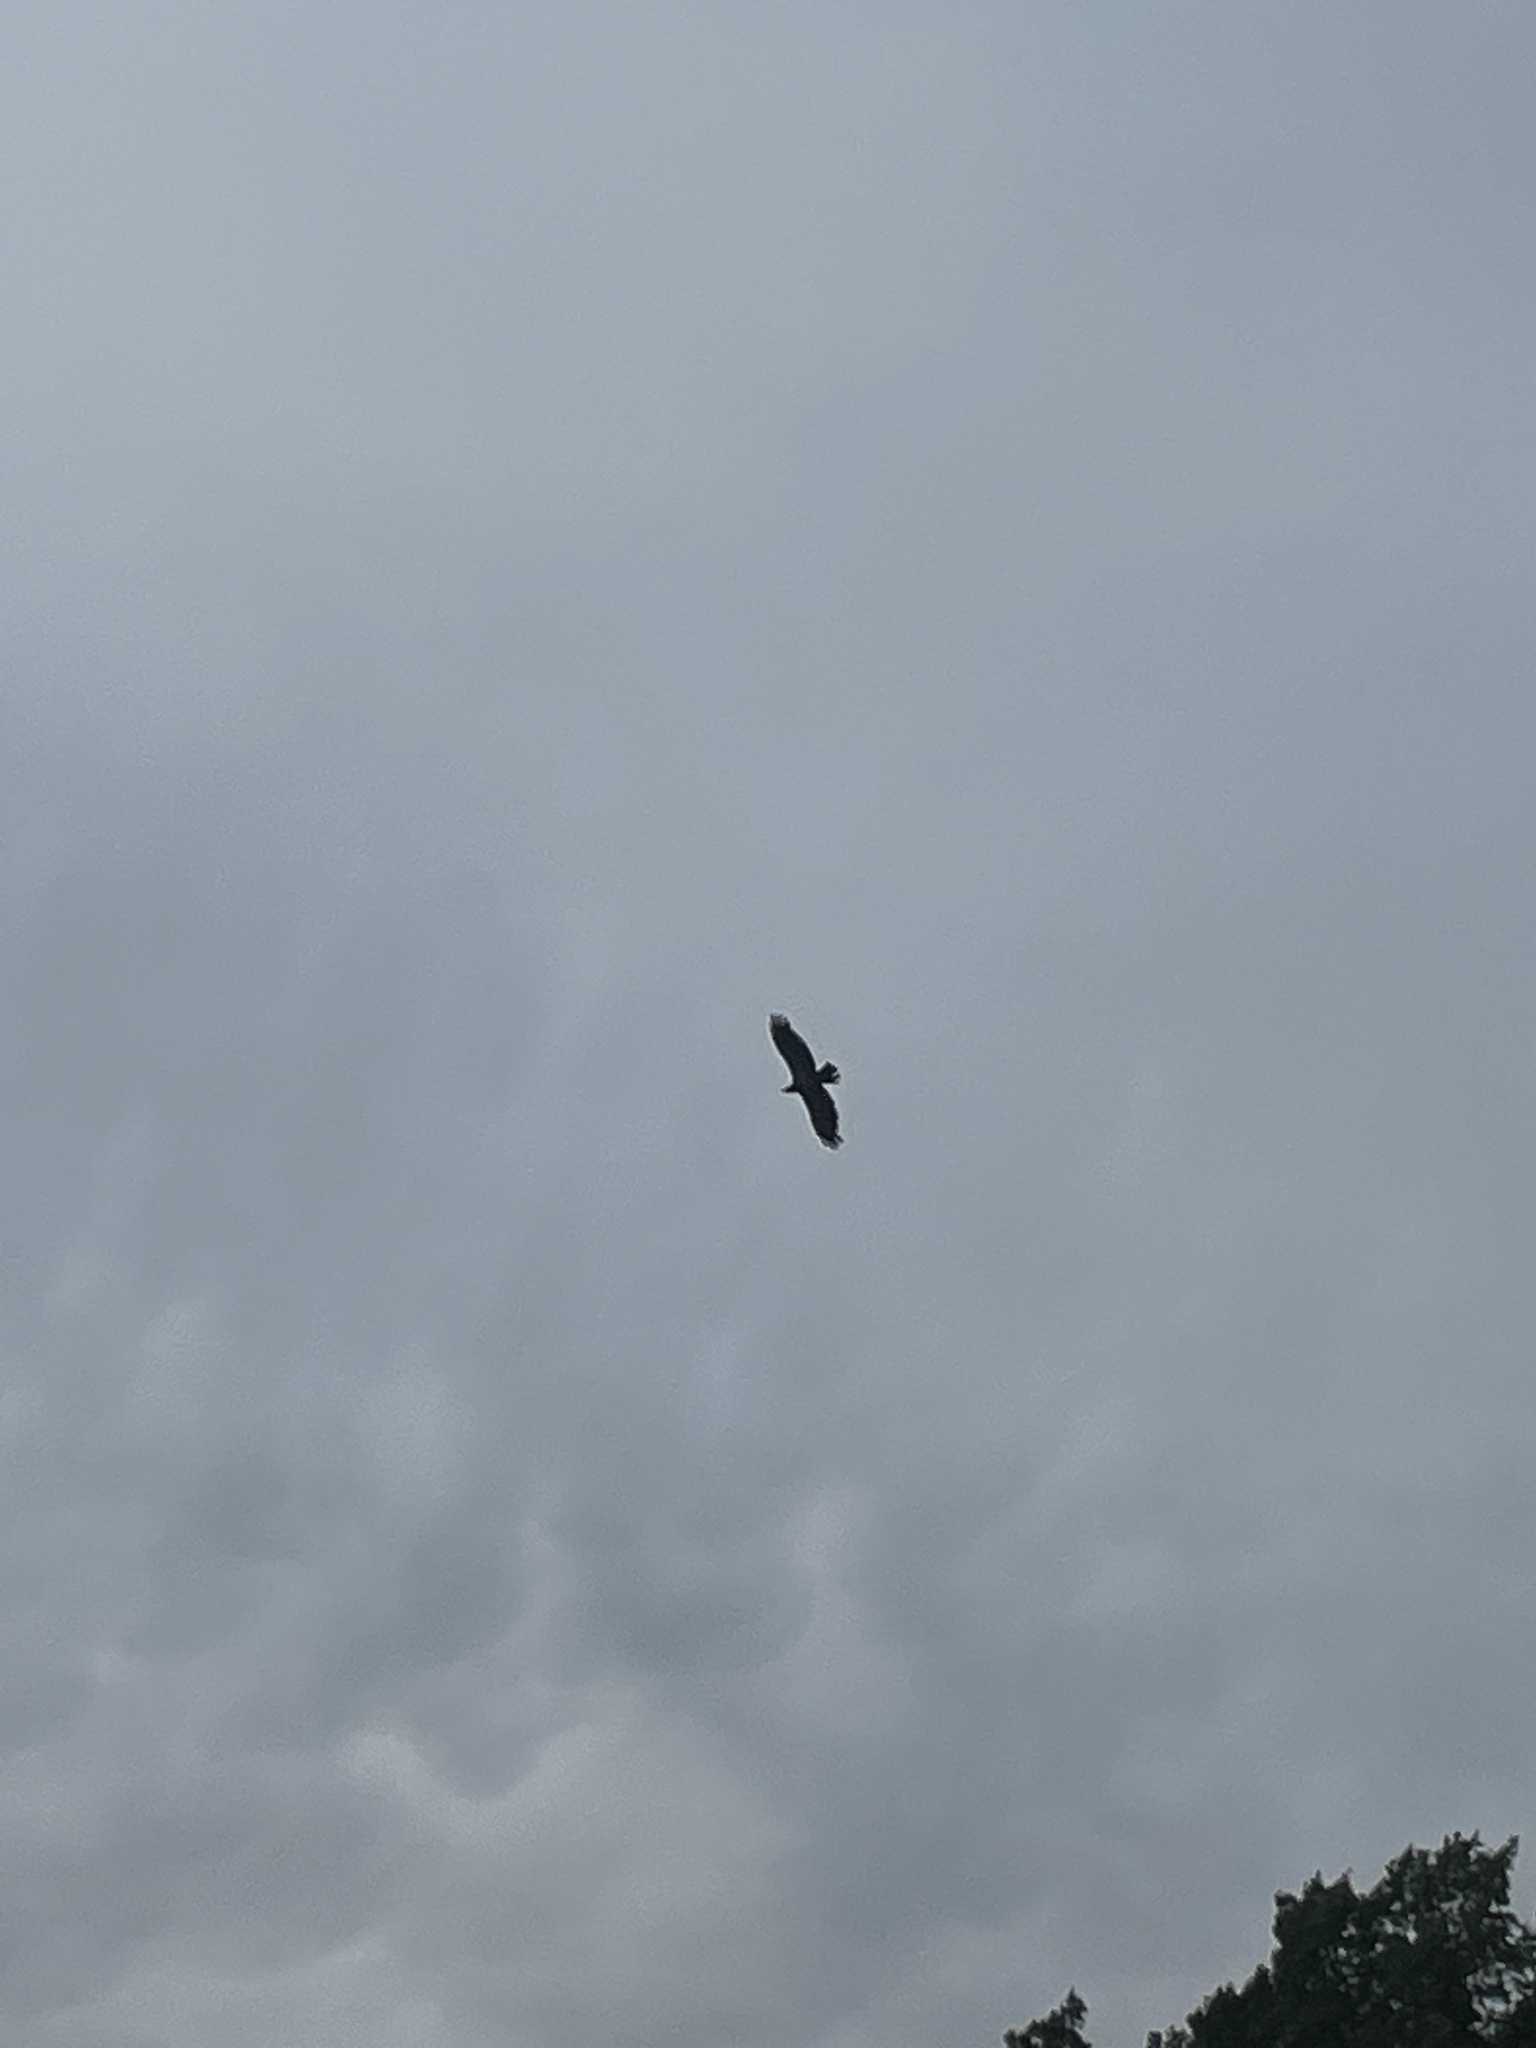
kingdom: Animalia
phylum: Chordata
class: Aves
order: Accipitriformes
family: Accipitridae
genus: Haliaeetus
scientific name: Haliaeetus leucocephalus
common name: Bald eagle
